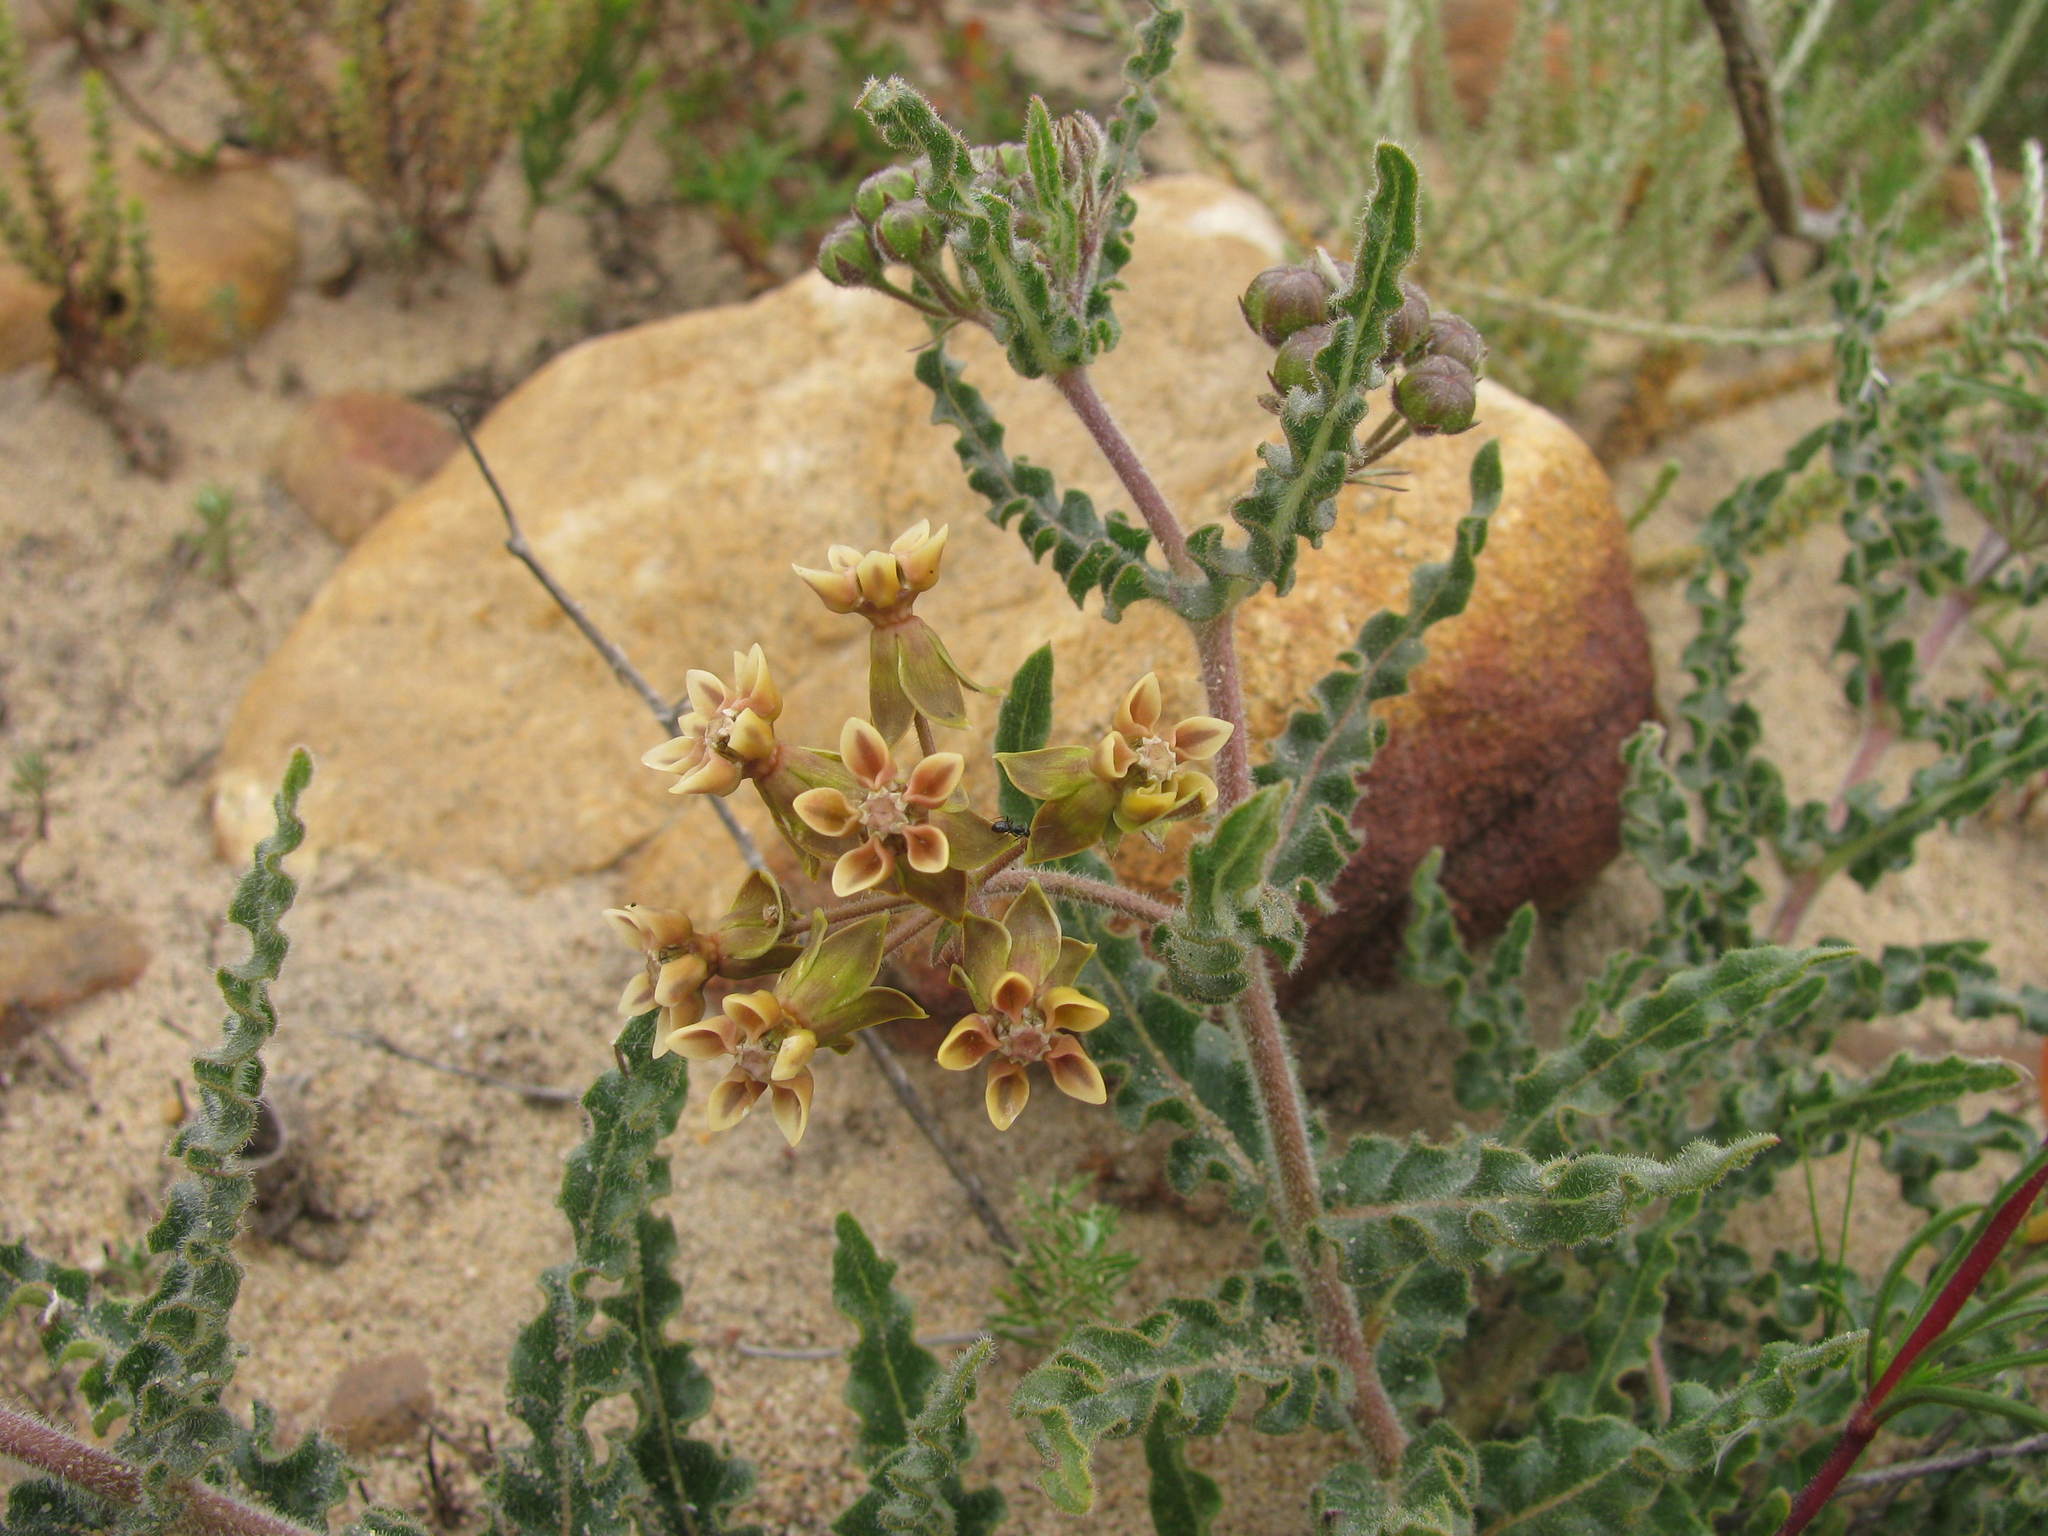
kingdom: Plantae
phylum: Tracheophyta
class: Magnoliopsida
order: Gentianales
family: Apocynaceae
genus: Asclepias
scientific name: Asclepias crispa
